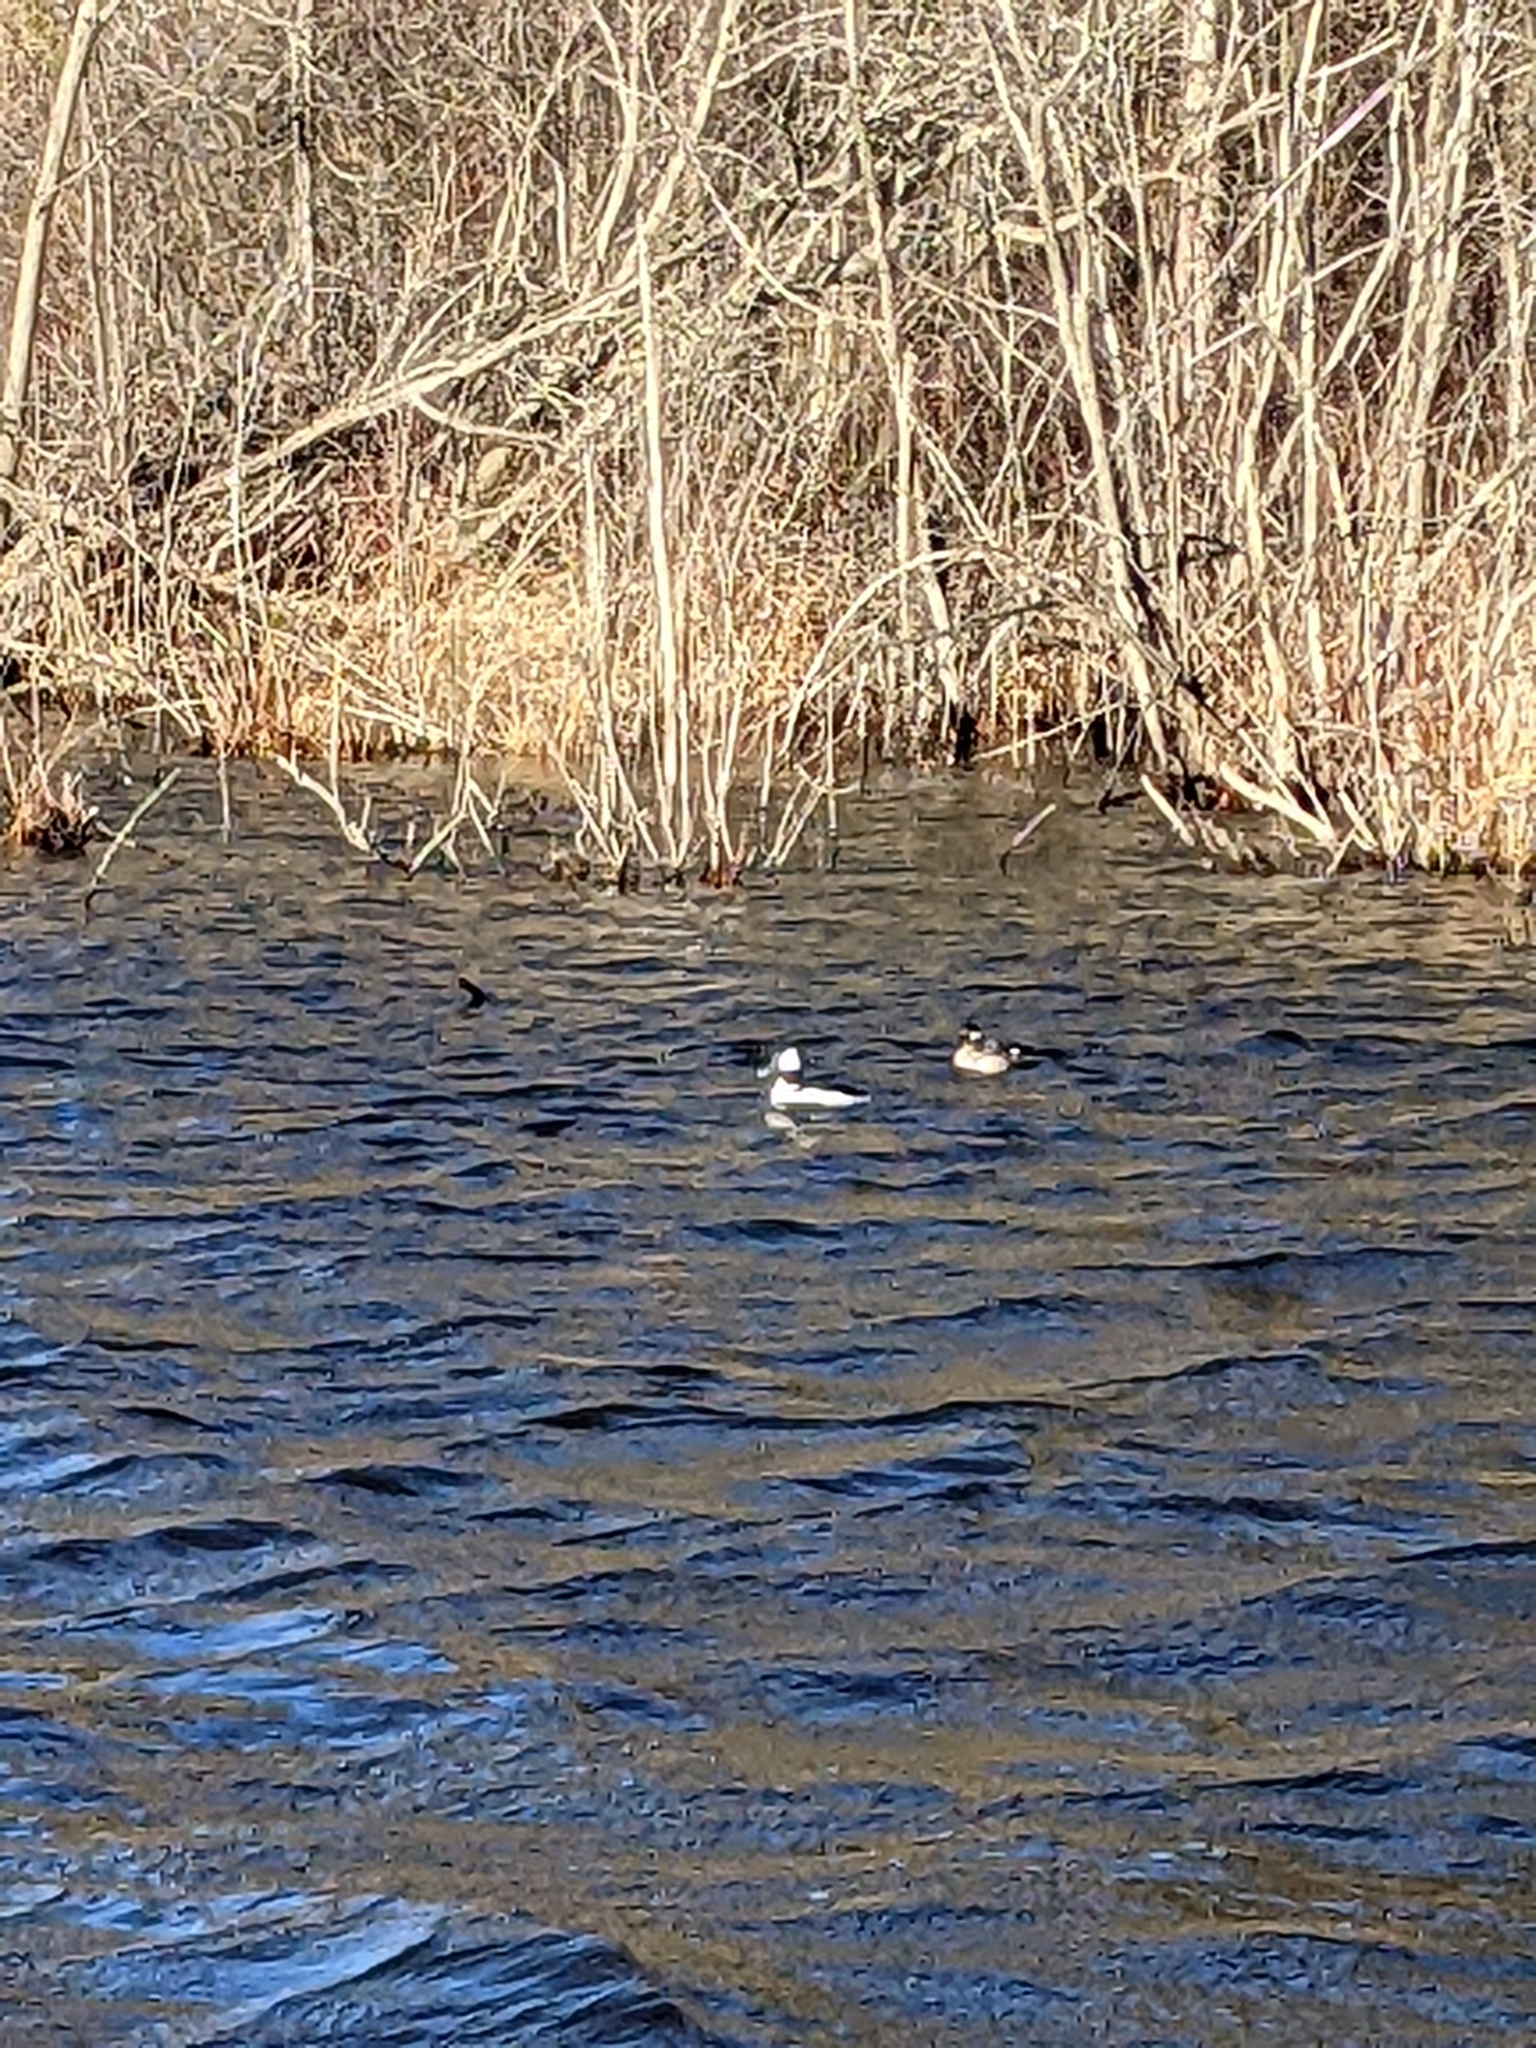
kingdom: Animalia
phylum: Chordata
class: Aves
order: Anseriformes
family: Anatidae
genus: Bucephala
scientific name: Bucephala albeola
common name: Bufflehead
